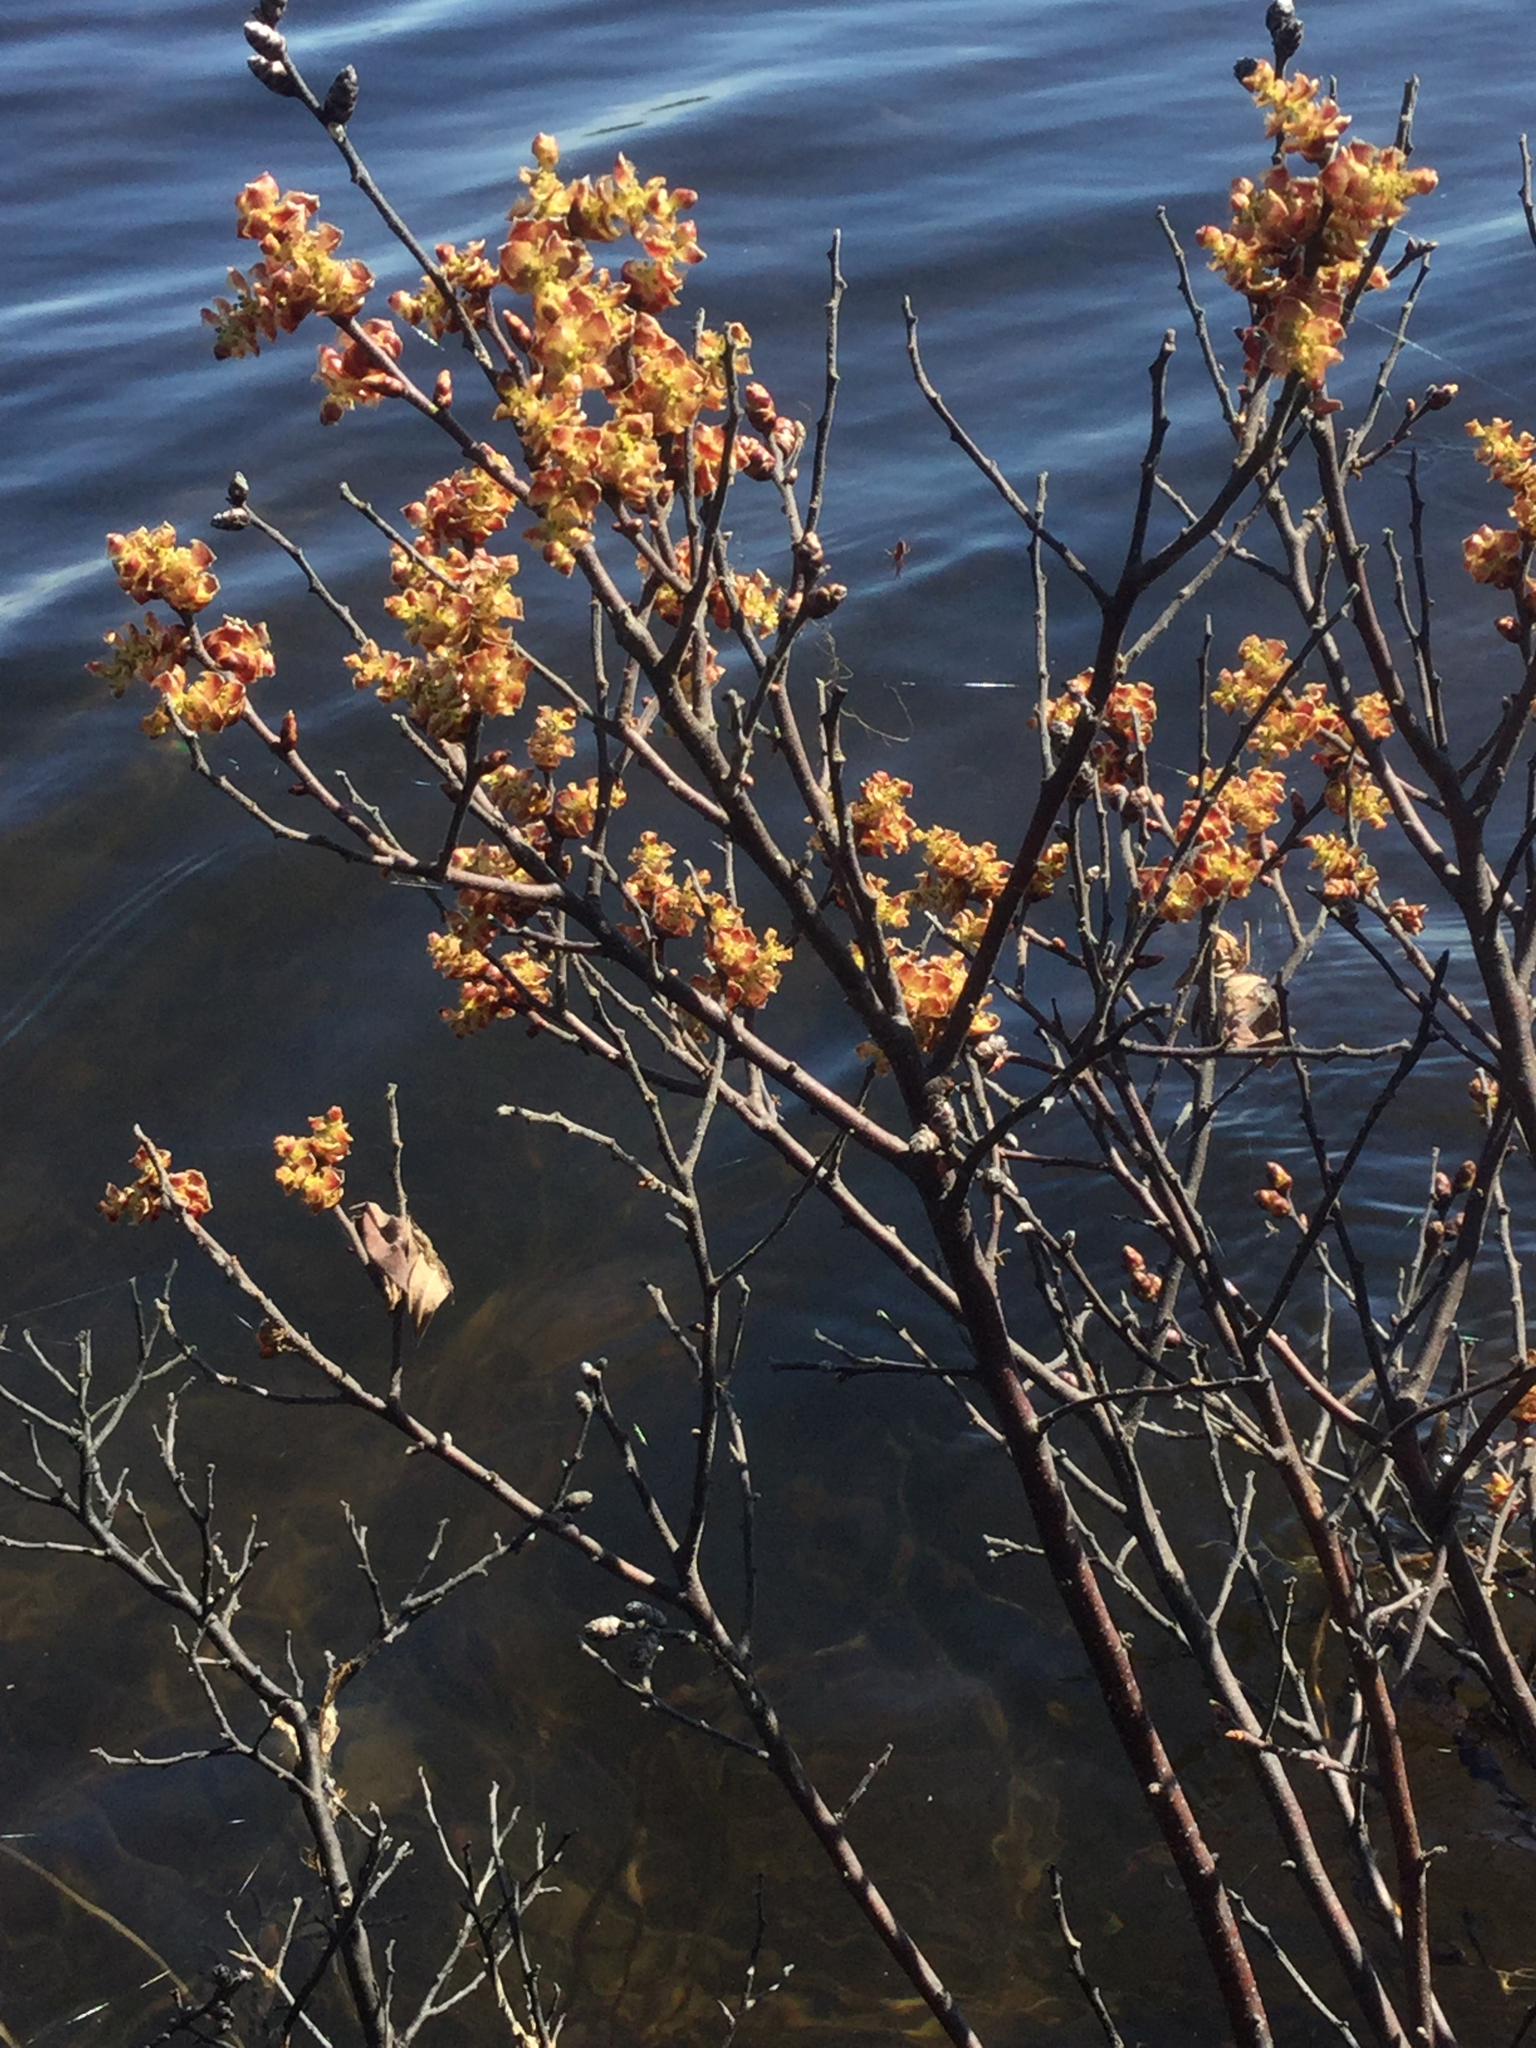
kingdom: Plantae
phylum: Tracheophyta
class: Magnoliopsida
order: Fagales
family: Myricaceae
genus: Myrica
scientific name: Myrica gale
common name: Sweet gale
